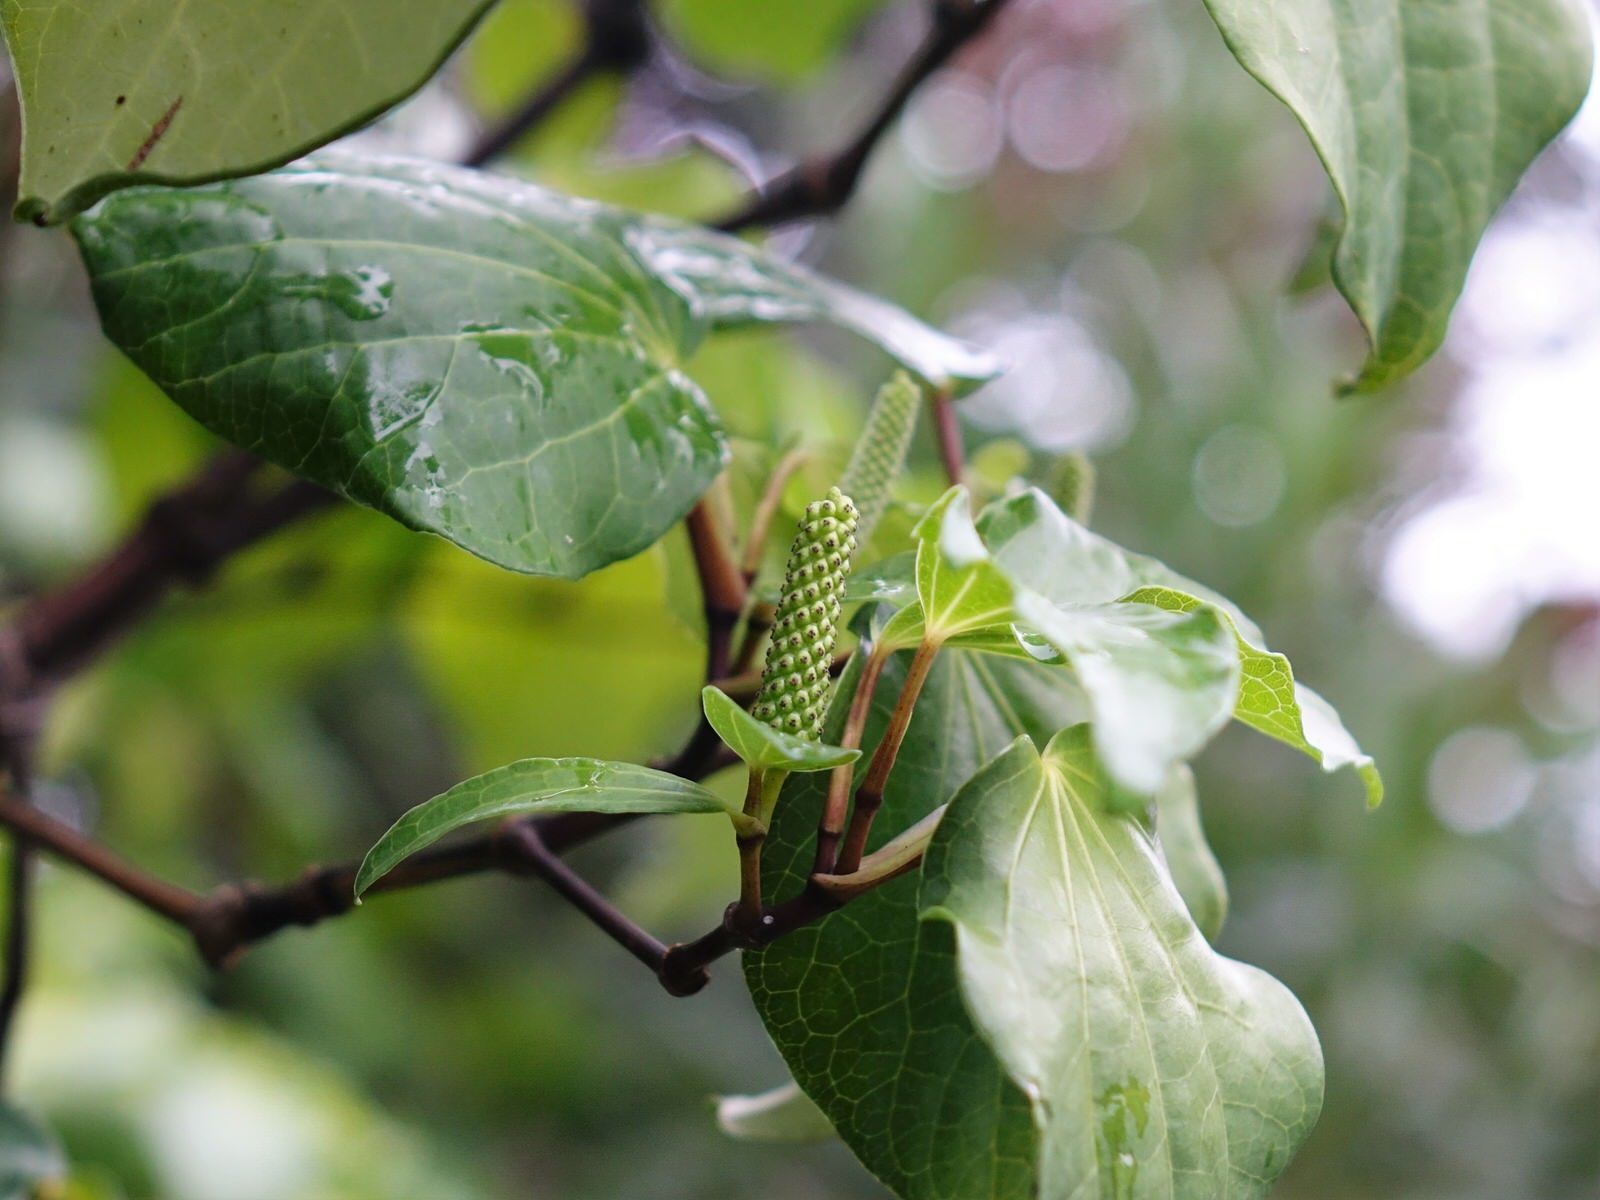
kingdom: Plantae
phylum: Tracheophyta
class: Magnoliopsida
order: Piperales
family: Piperaceae
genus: Macropiper
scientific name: Macropiper excelsum
